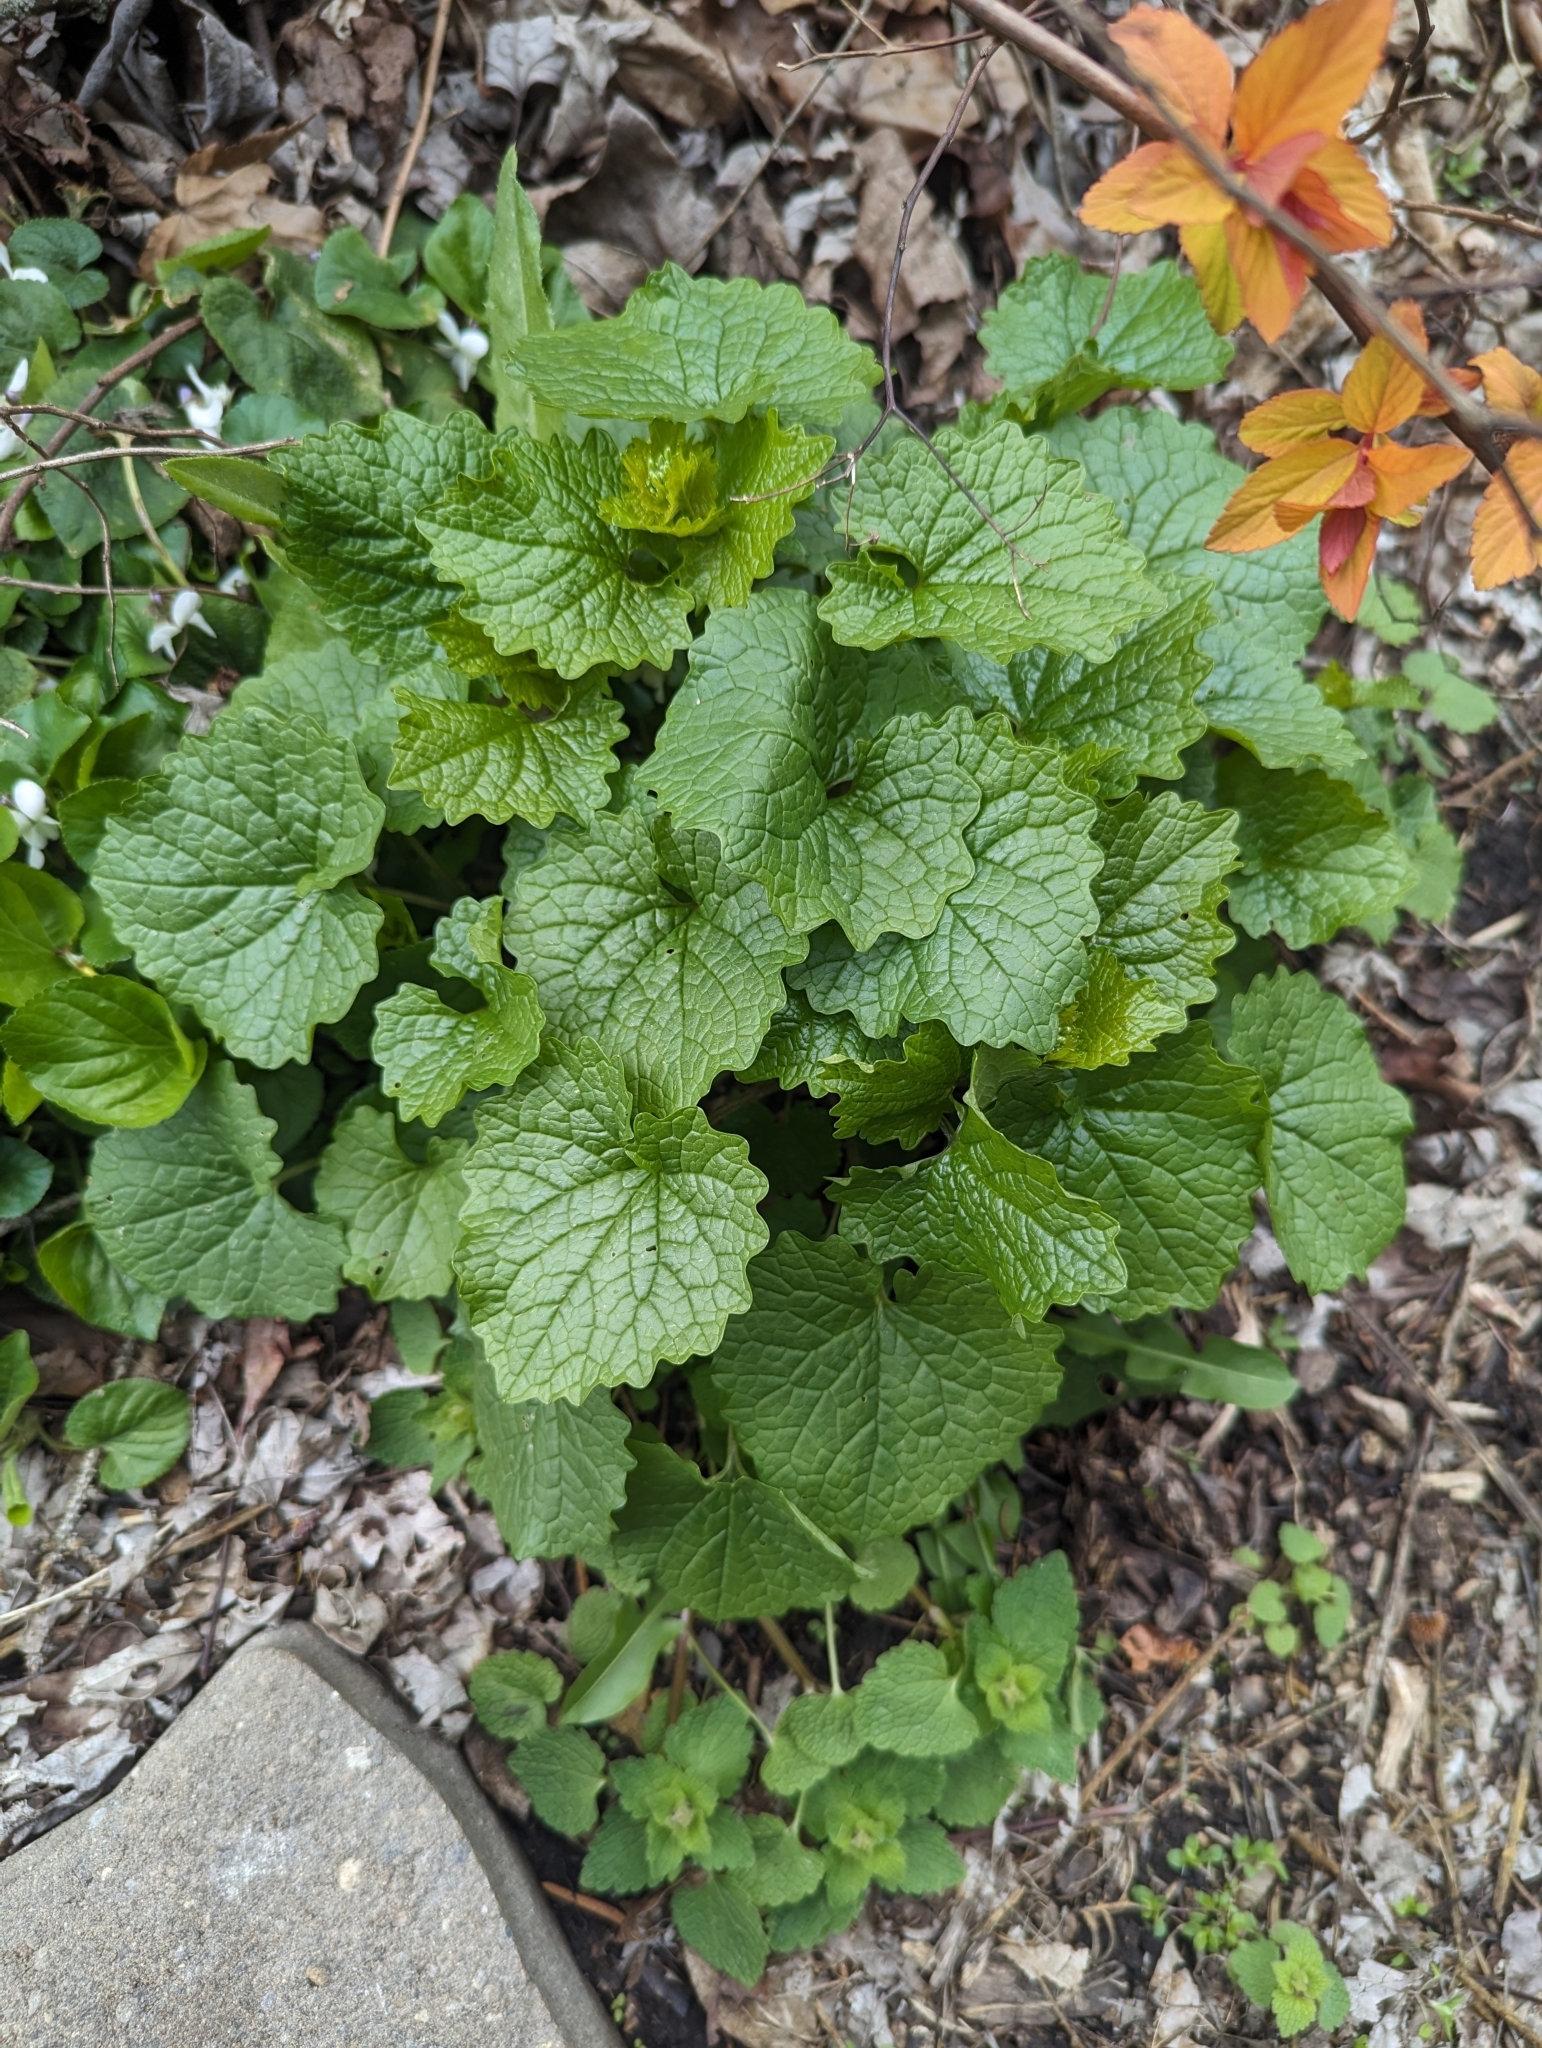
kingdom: Plantae
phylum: Tracheophyta
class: Magnoliopsida
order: Brassicales
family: Brassicaceae
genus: Alliaria
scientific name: Alliaria petiolata
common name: Garlic mustard
